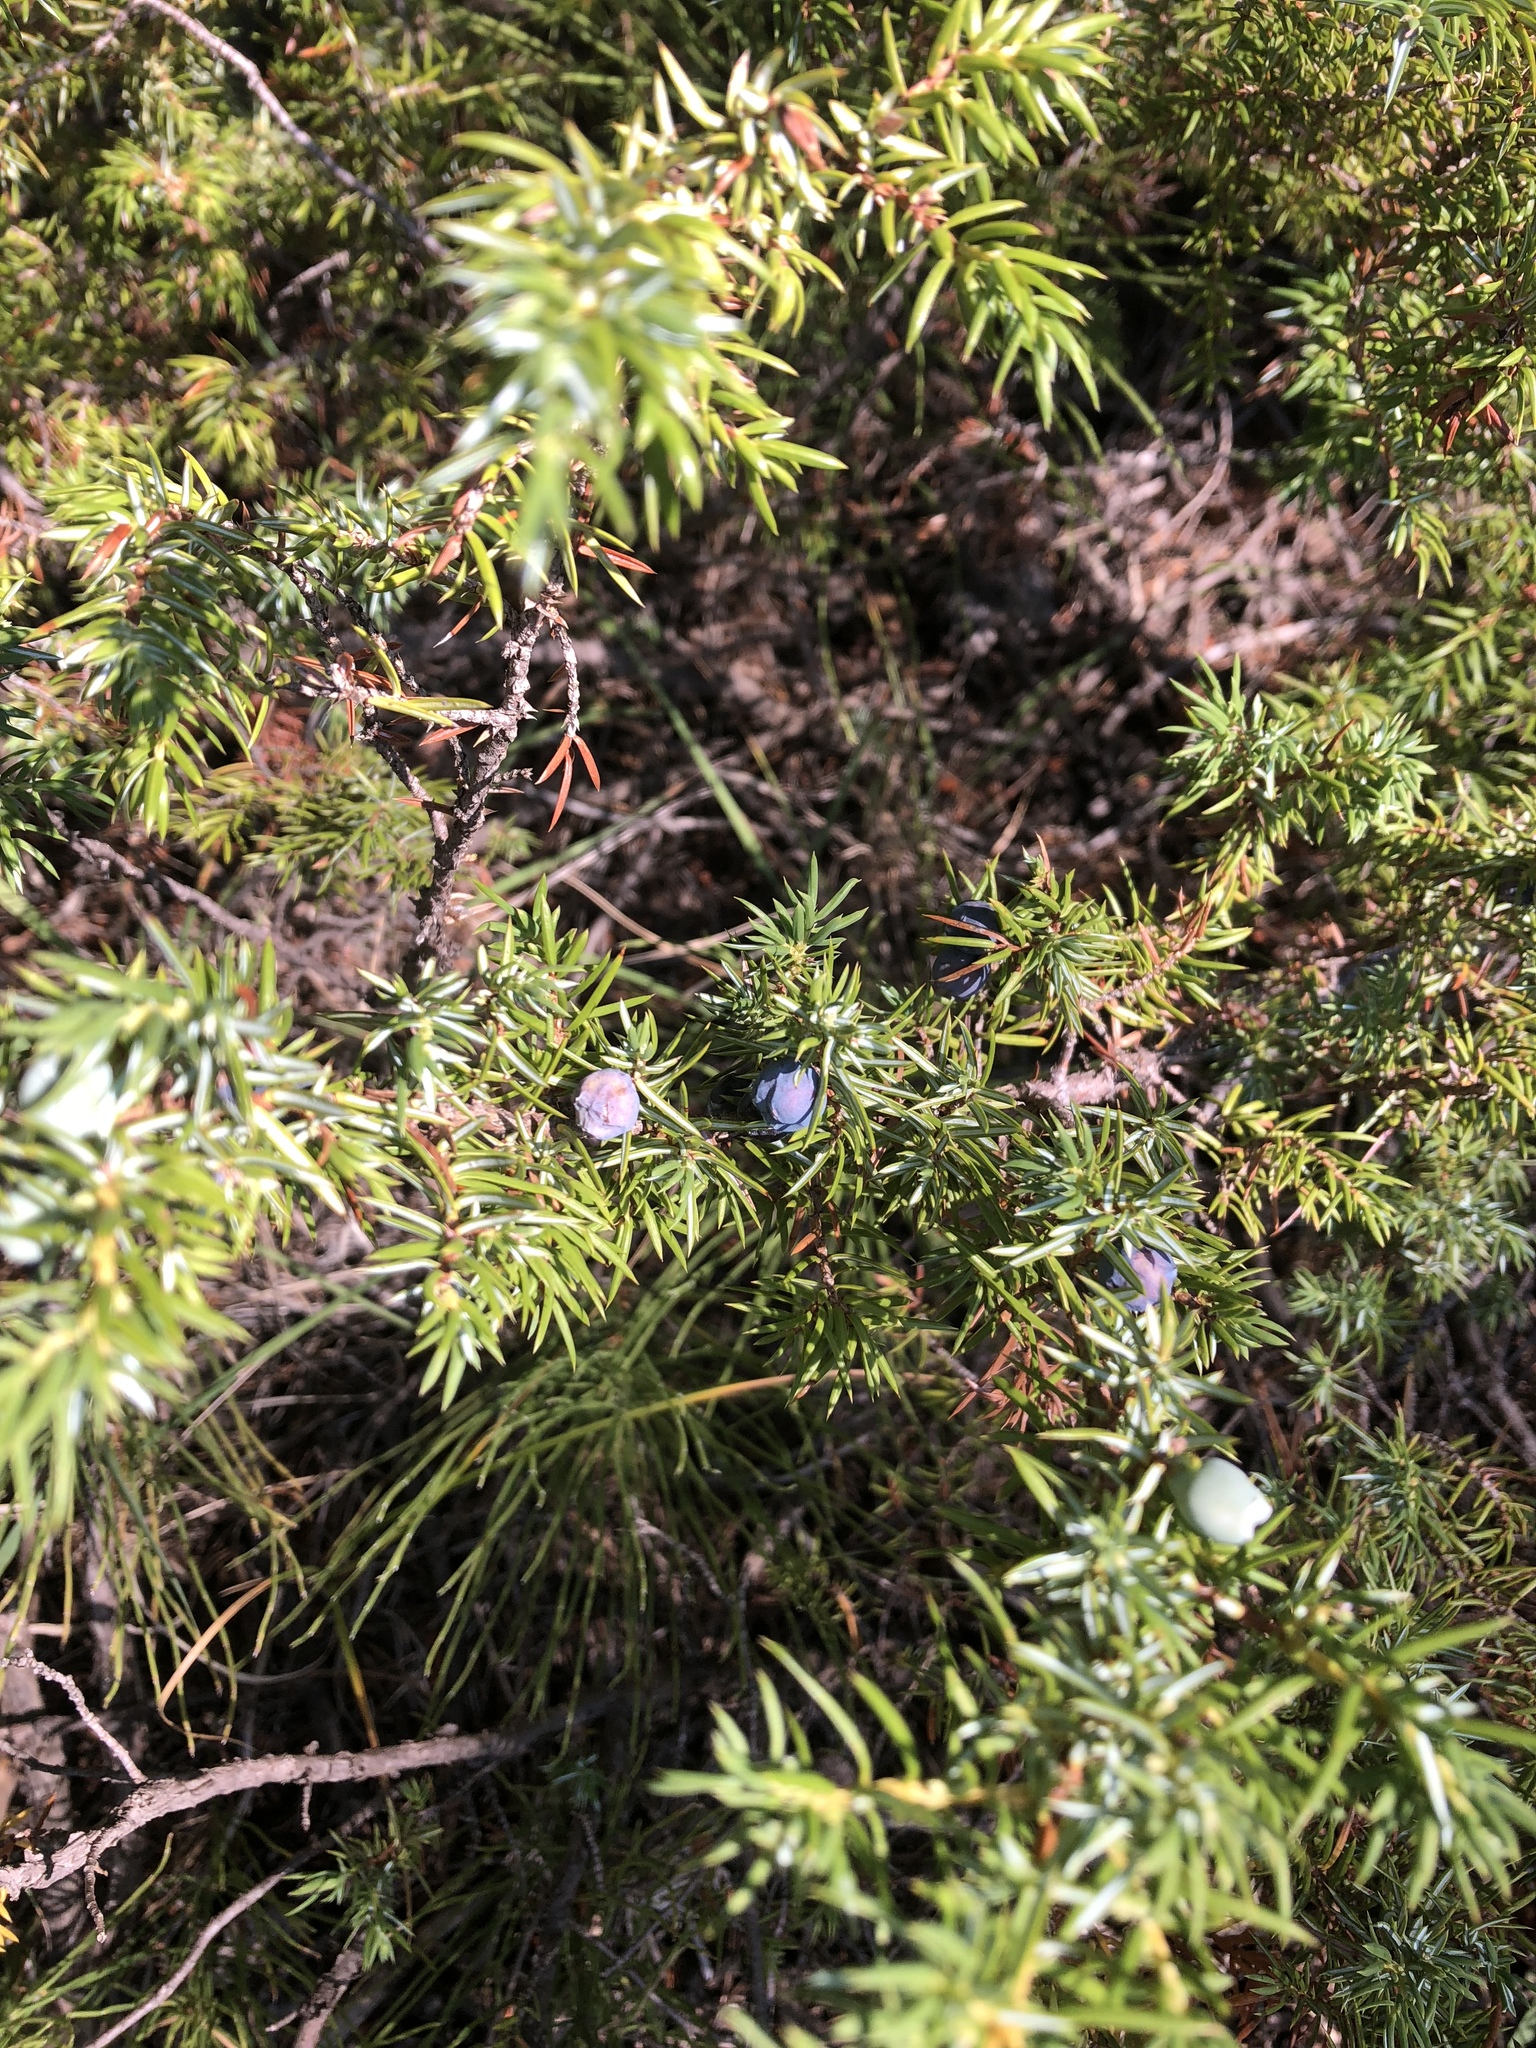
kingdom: Plantae
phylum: Tracheophyta
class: Pinopsida
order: Pinales
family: Cupressaceae
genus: Juniperus
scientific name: Juniperus communis
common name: Common juniper
